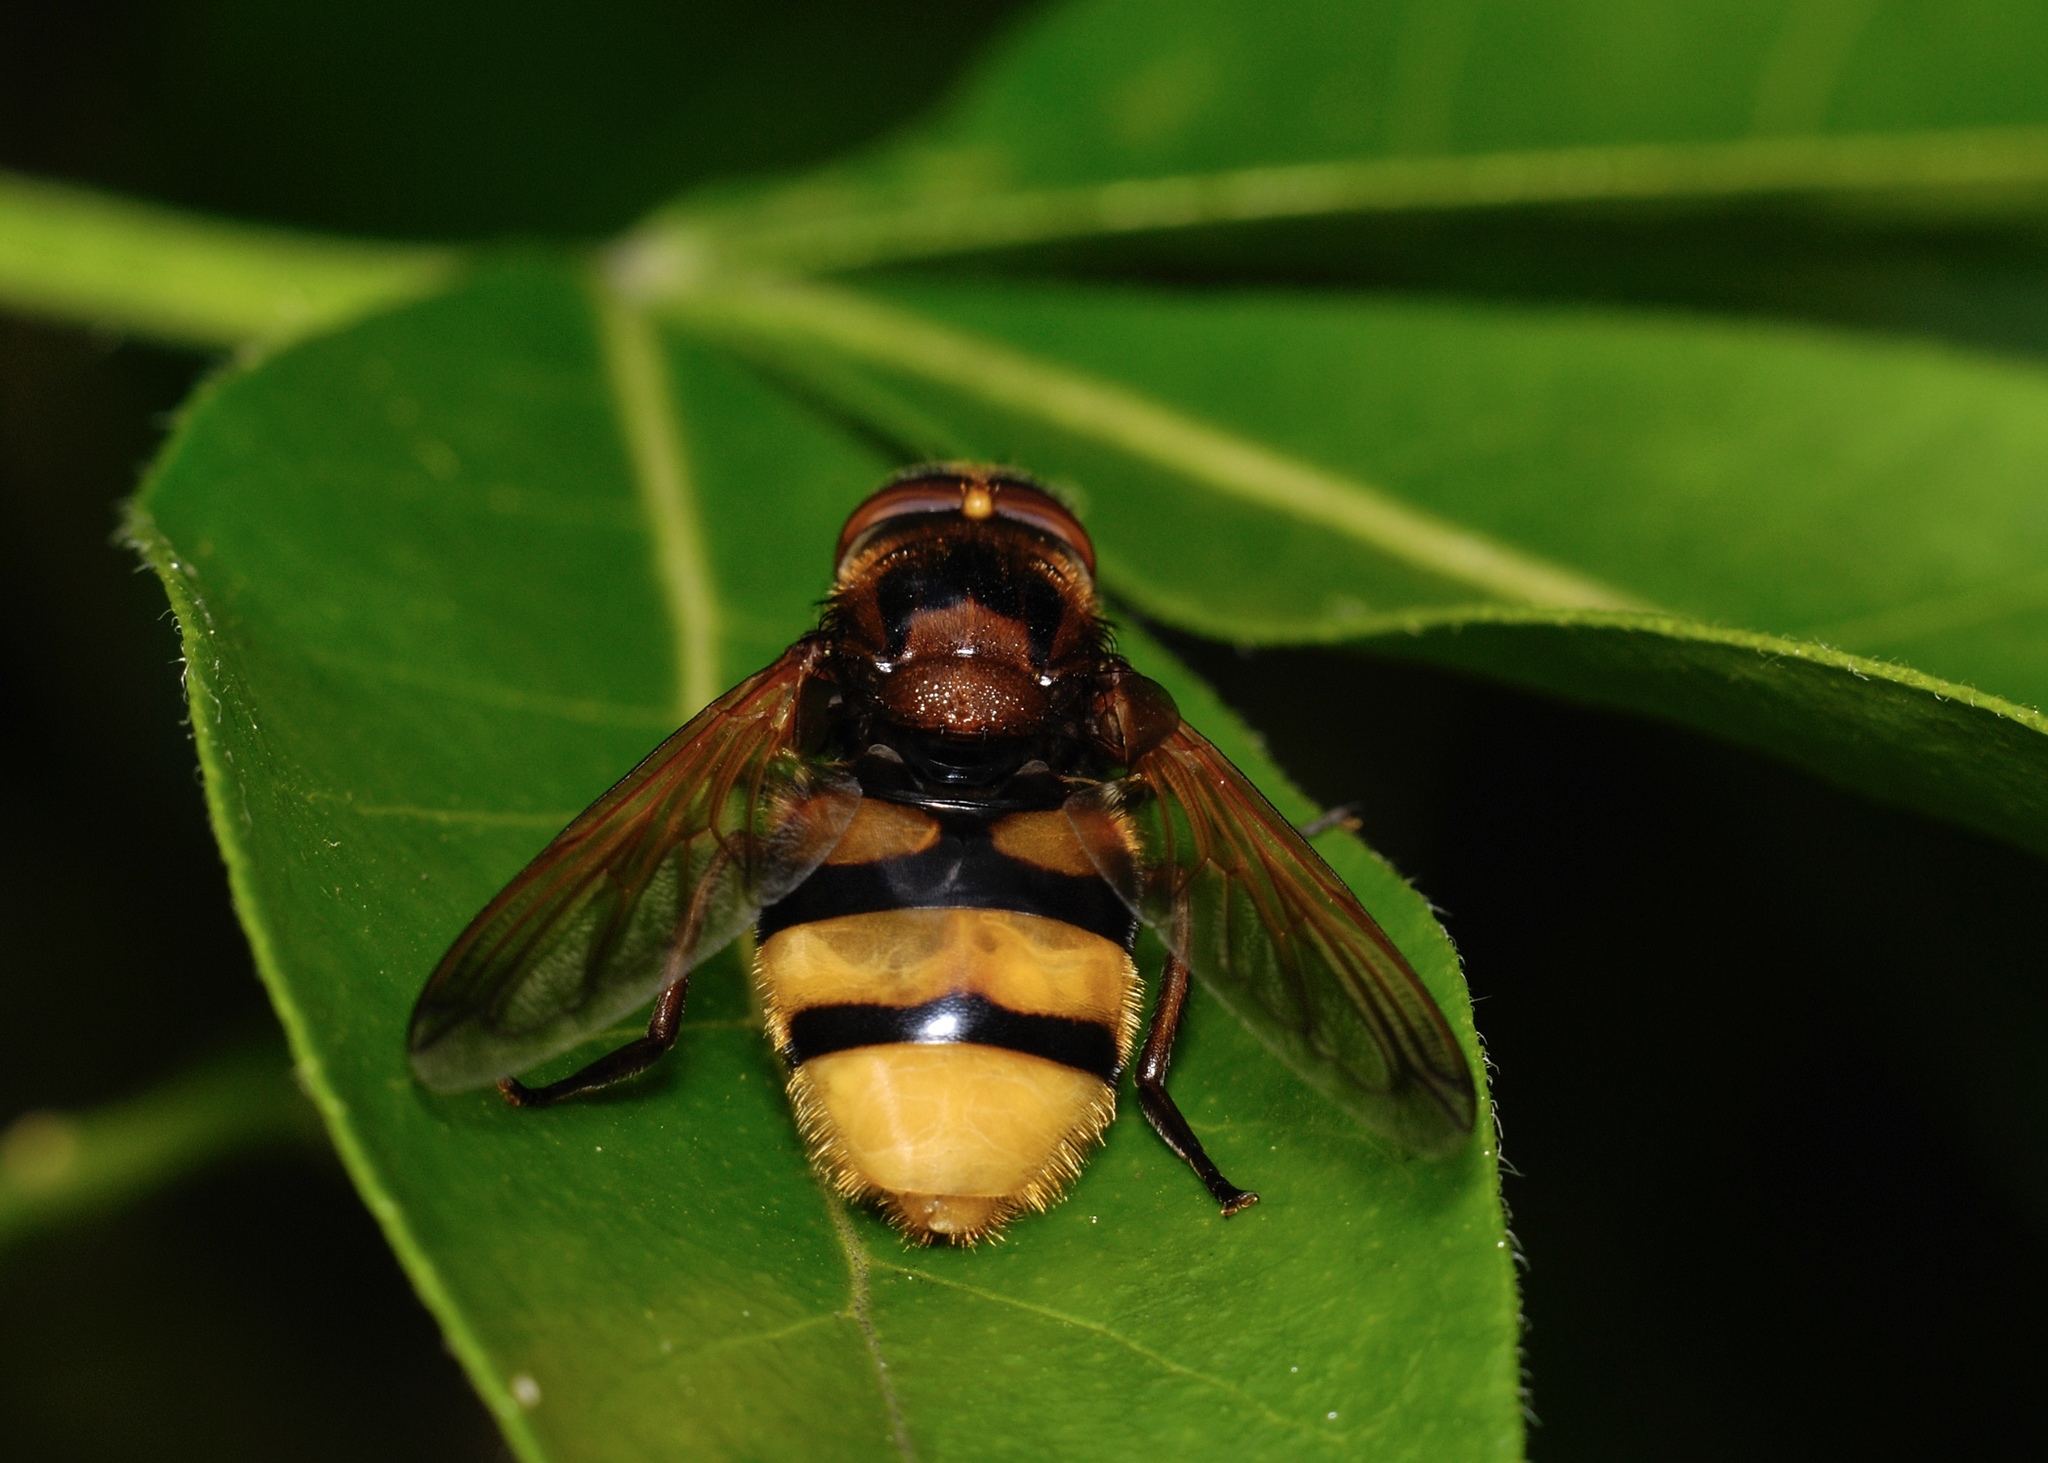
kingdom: Animalia
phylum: Arthropoda
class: Insecta
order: Diptera
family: Syrphidae
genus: Volucella
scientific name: Volucella zonaria
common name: Hornet hoverfly
